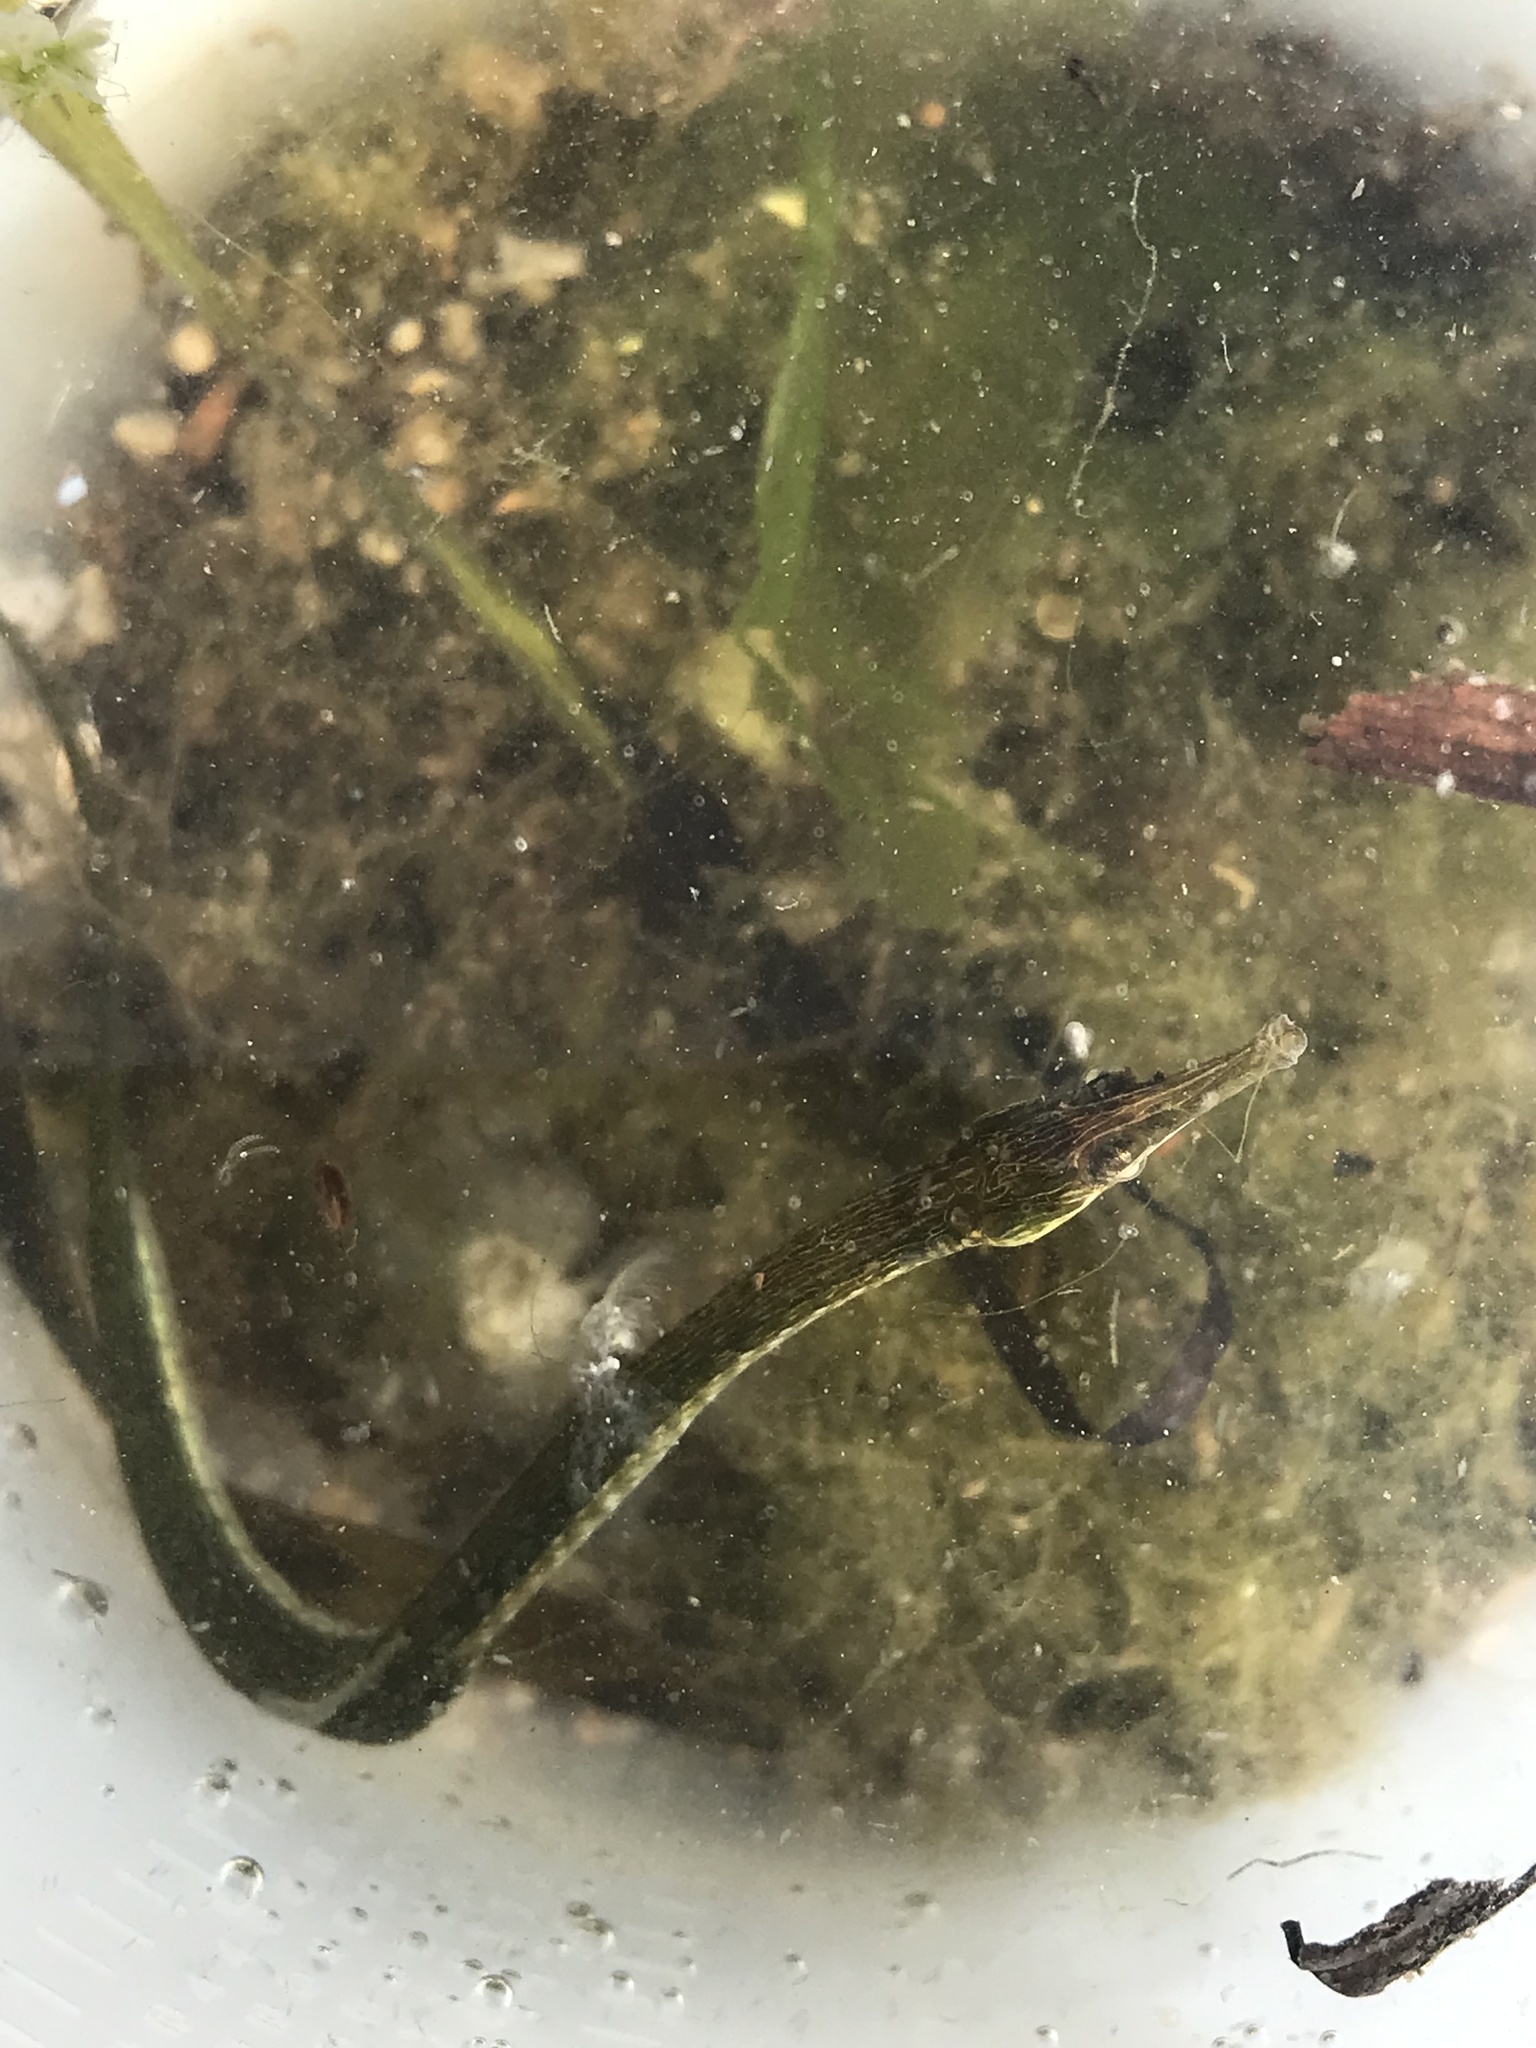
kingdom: Animalia
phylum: Chordata
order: Syngnathiformes
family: Syngnathidae
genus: Syngnathus
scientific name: Syngnathus californiensis
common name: Great pipefish
